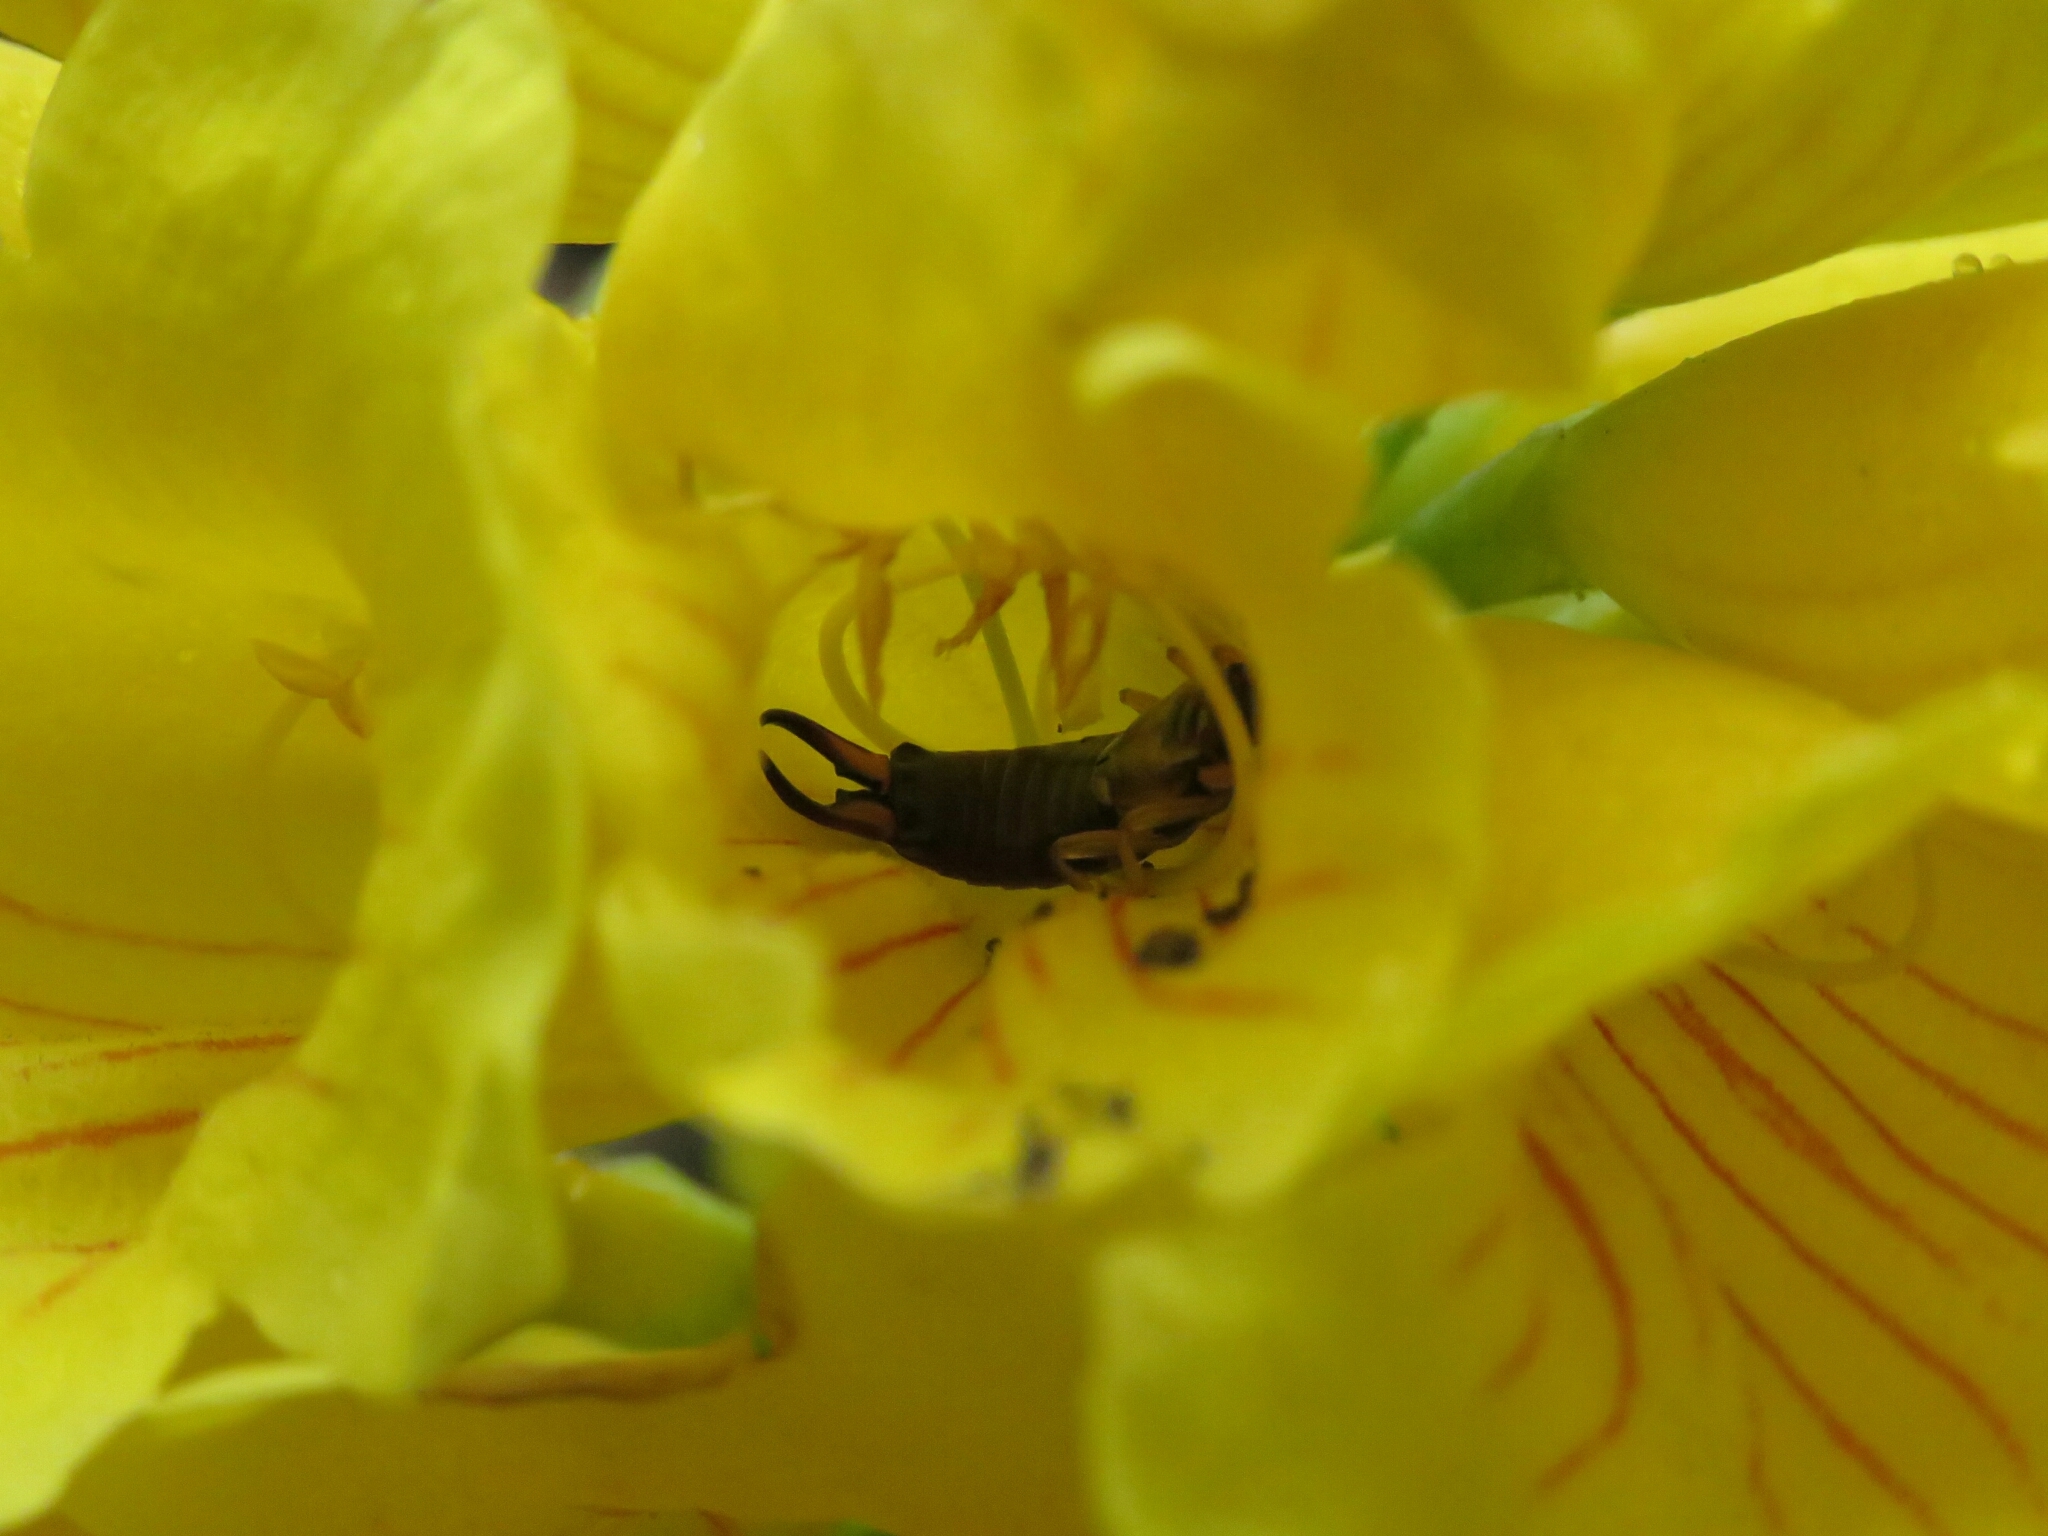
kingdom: Animalia
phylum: Arthropoda
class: Insecta
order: Dermaptera
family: Forficulidae
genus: Forficula
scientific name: Forficula
